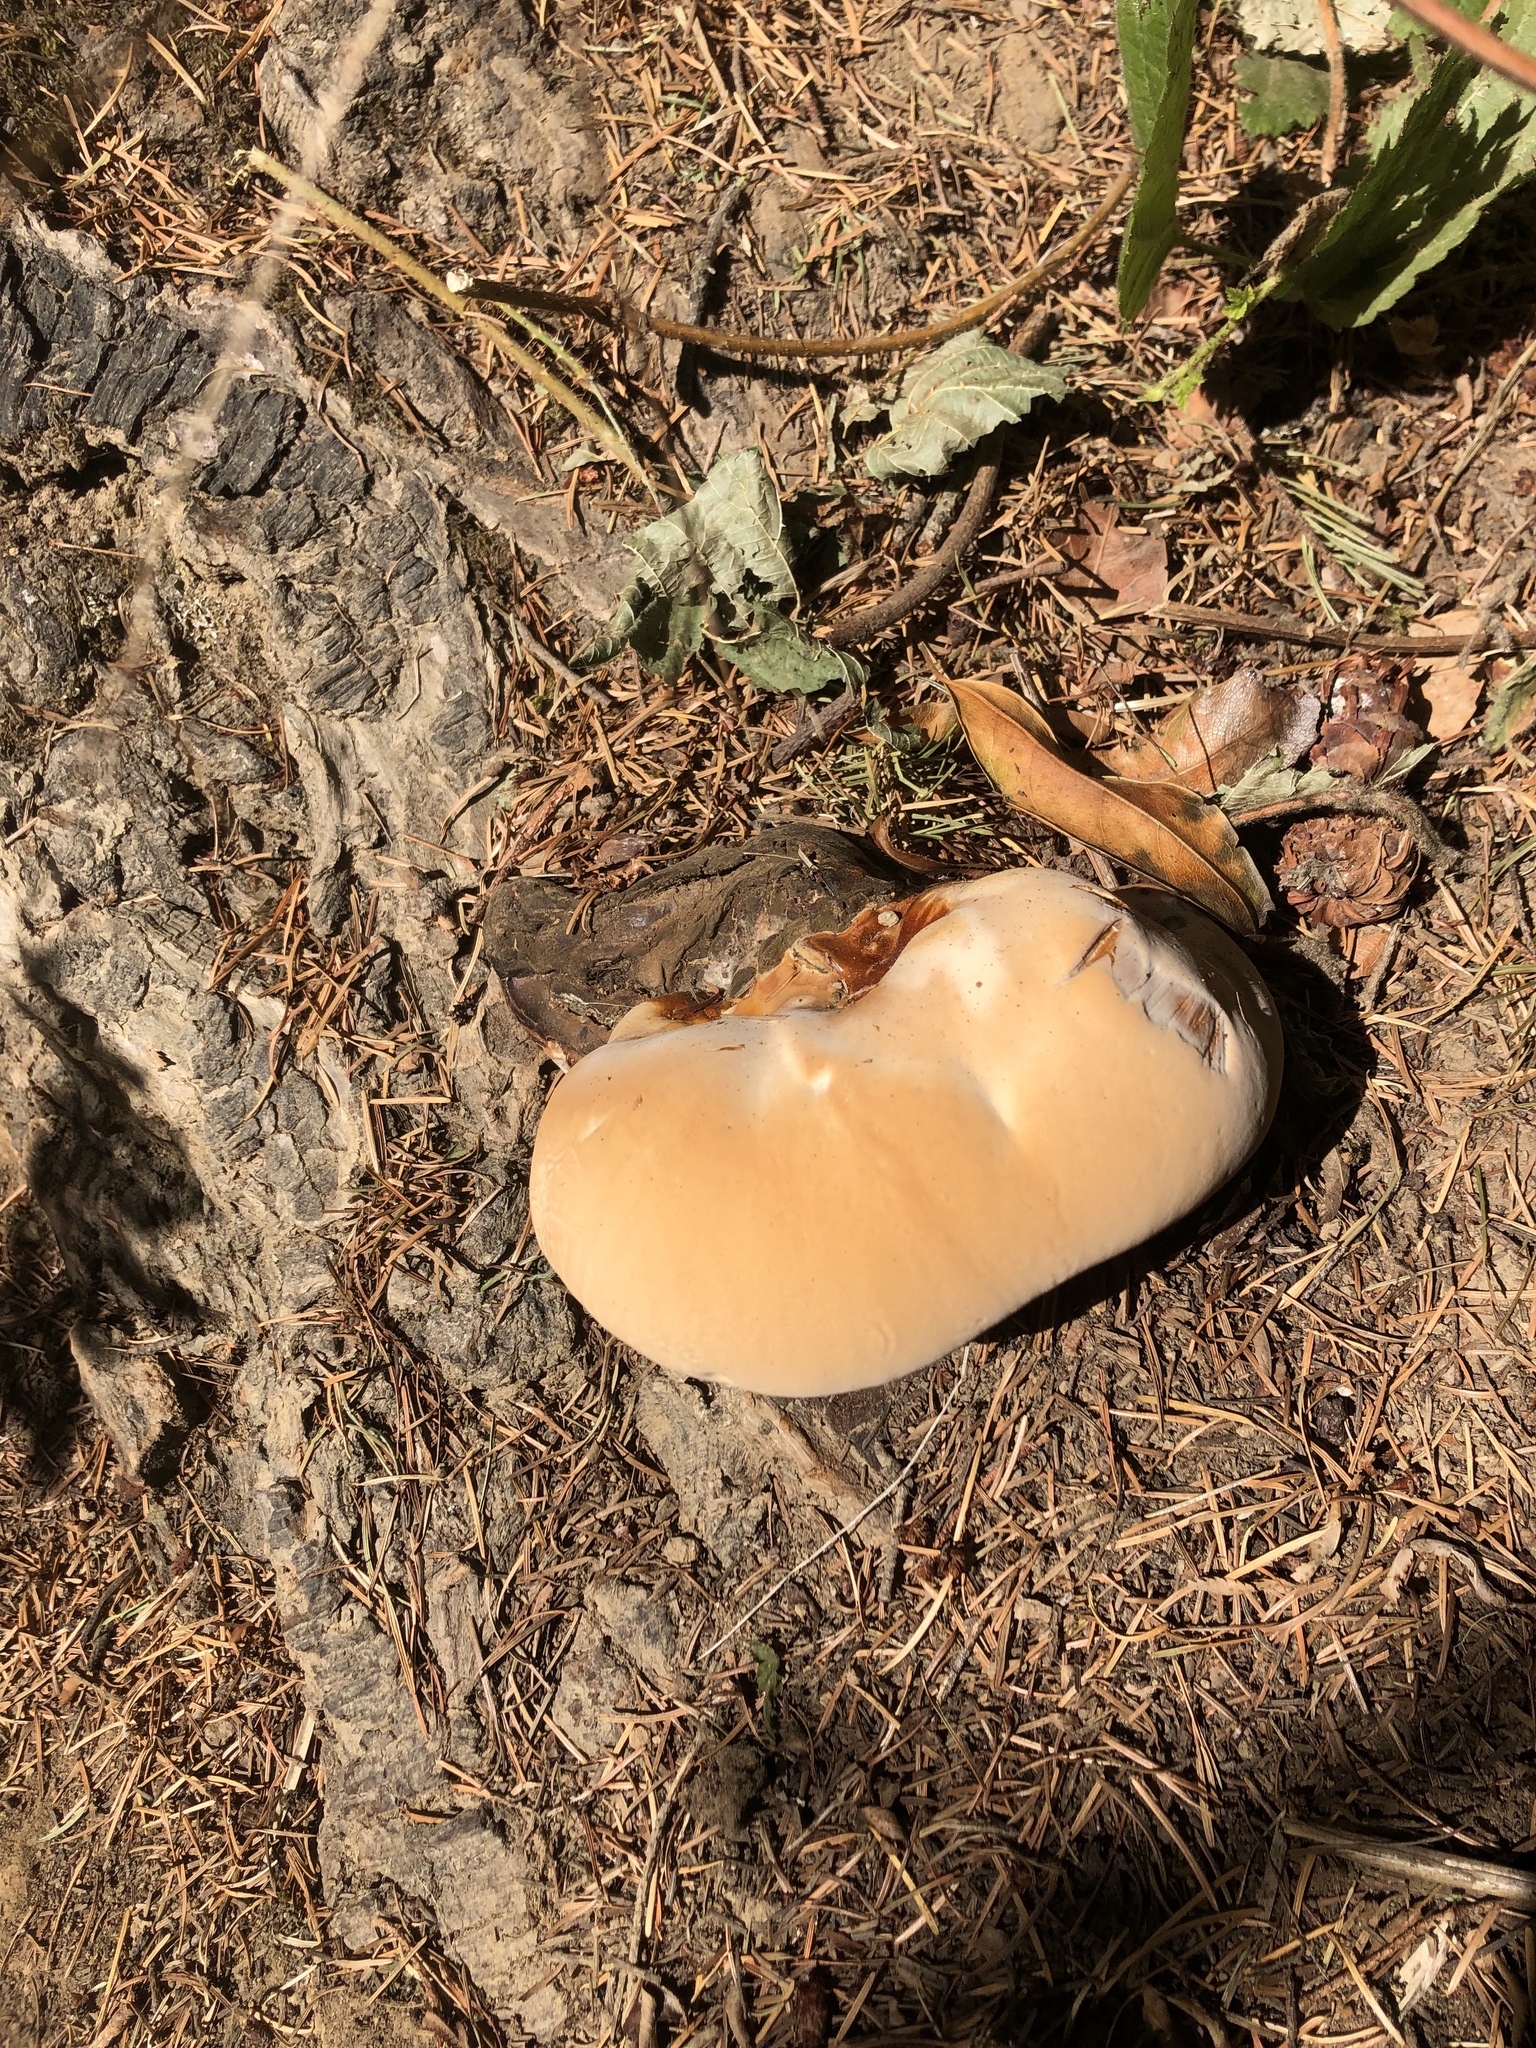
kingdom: Fungi
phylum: Basidiomycota
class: Agaricomycetes
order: Polyporales
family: Polyporaceae
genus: Ganoderma
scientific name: Ganoderma oregonense
